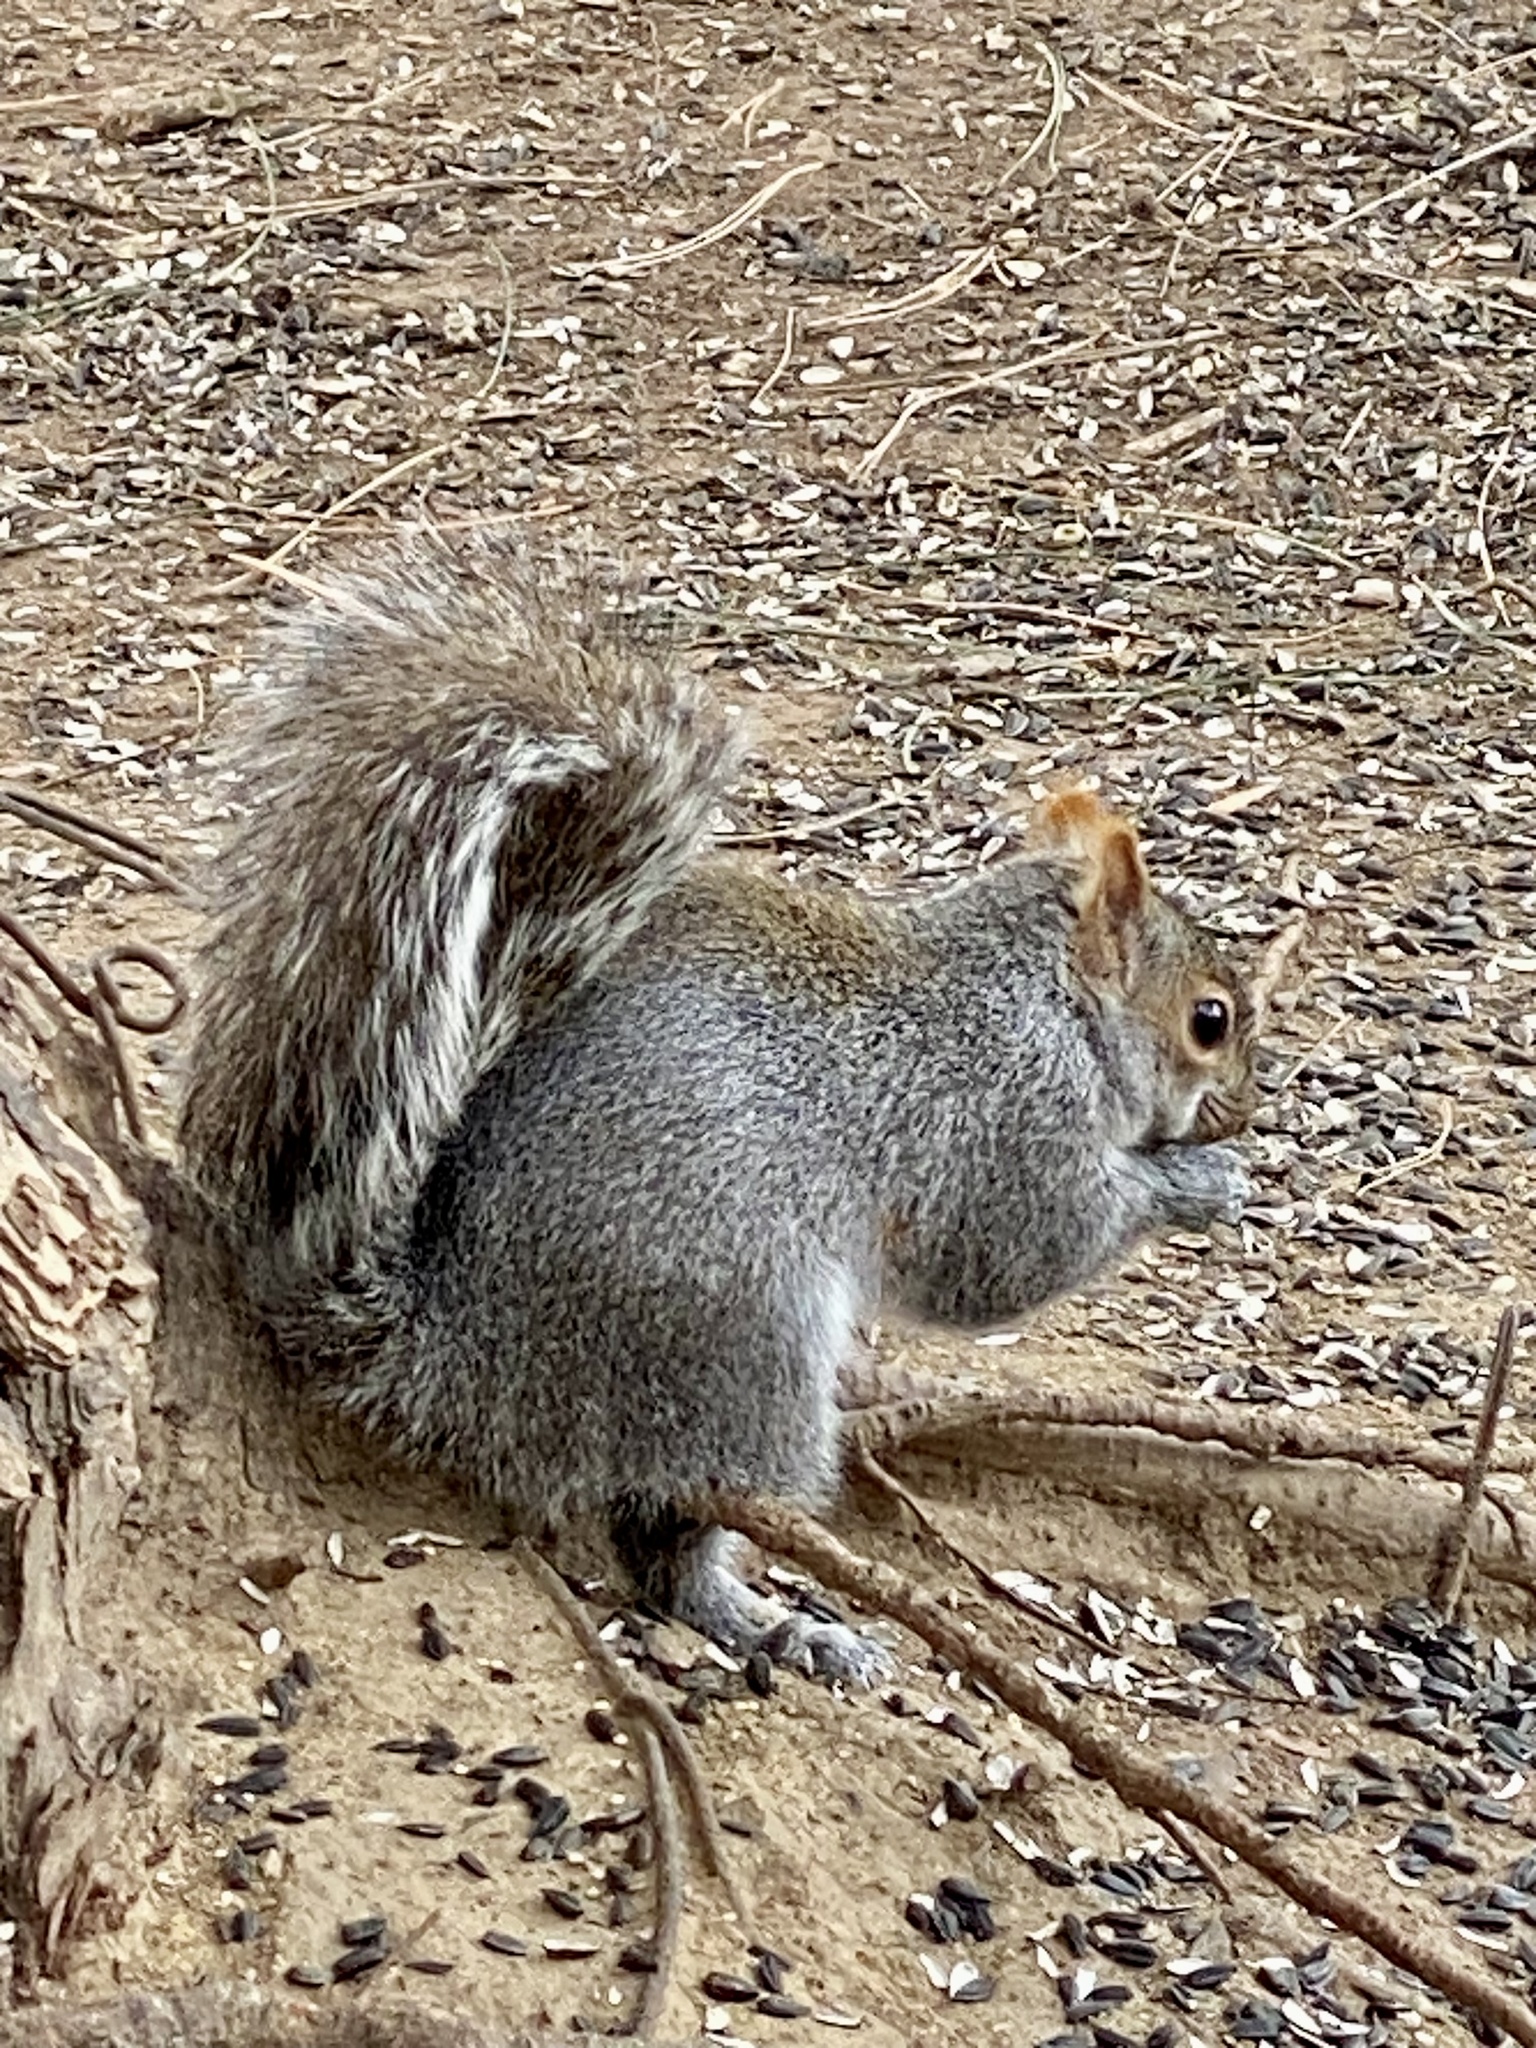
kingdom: Animalia
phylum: Chordata
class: Mammalia
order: Rodentia
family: Sciuridae
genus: Sciurus
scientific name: Sciurus carolinensis
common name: Eastern gray squirrel
